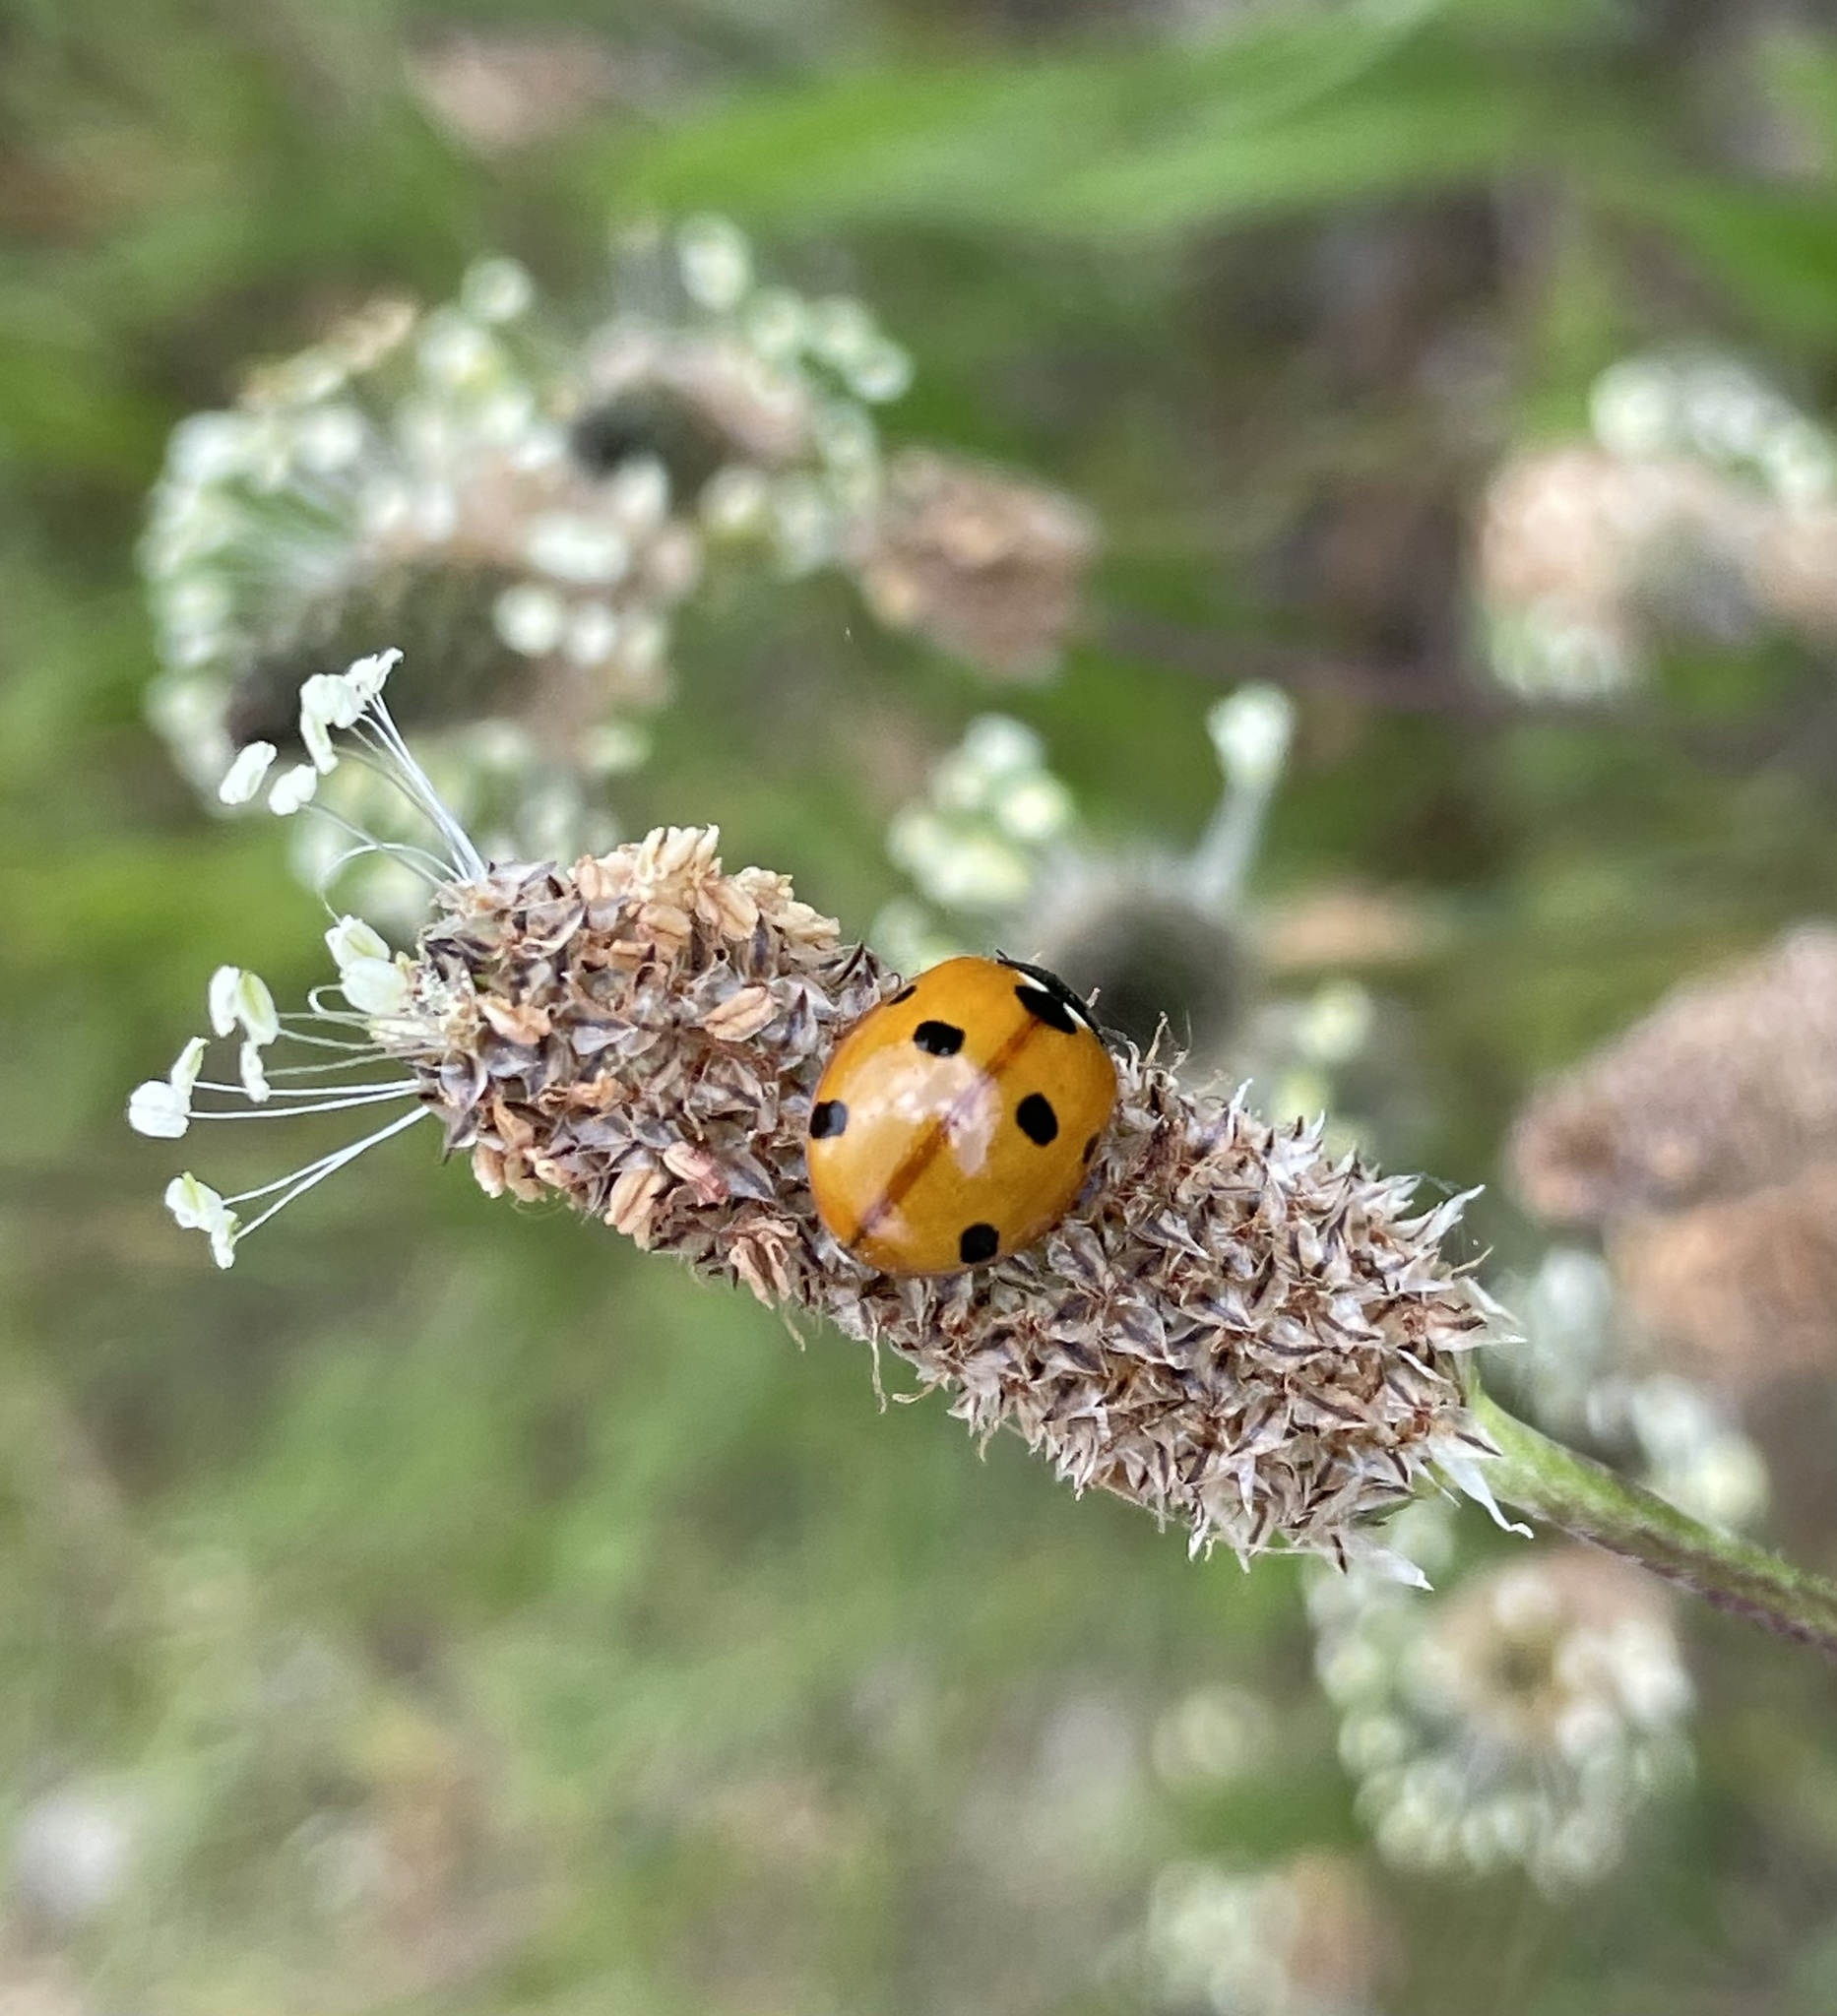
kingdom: Animalia
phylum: Arthropoda
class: Insecta
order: Coleoptera
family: Coccinellidae
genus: Coccinella
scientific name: Coccinella septempunctata
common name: Sevenspotted lady beetle
